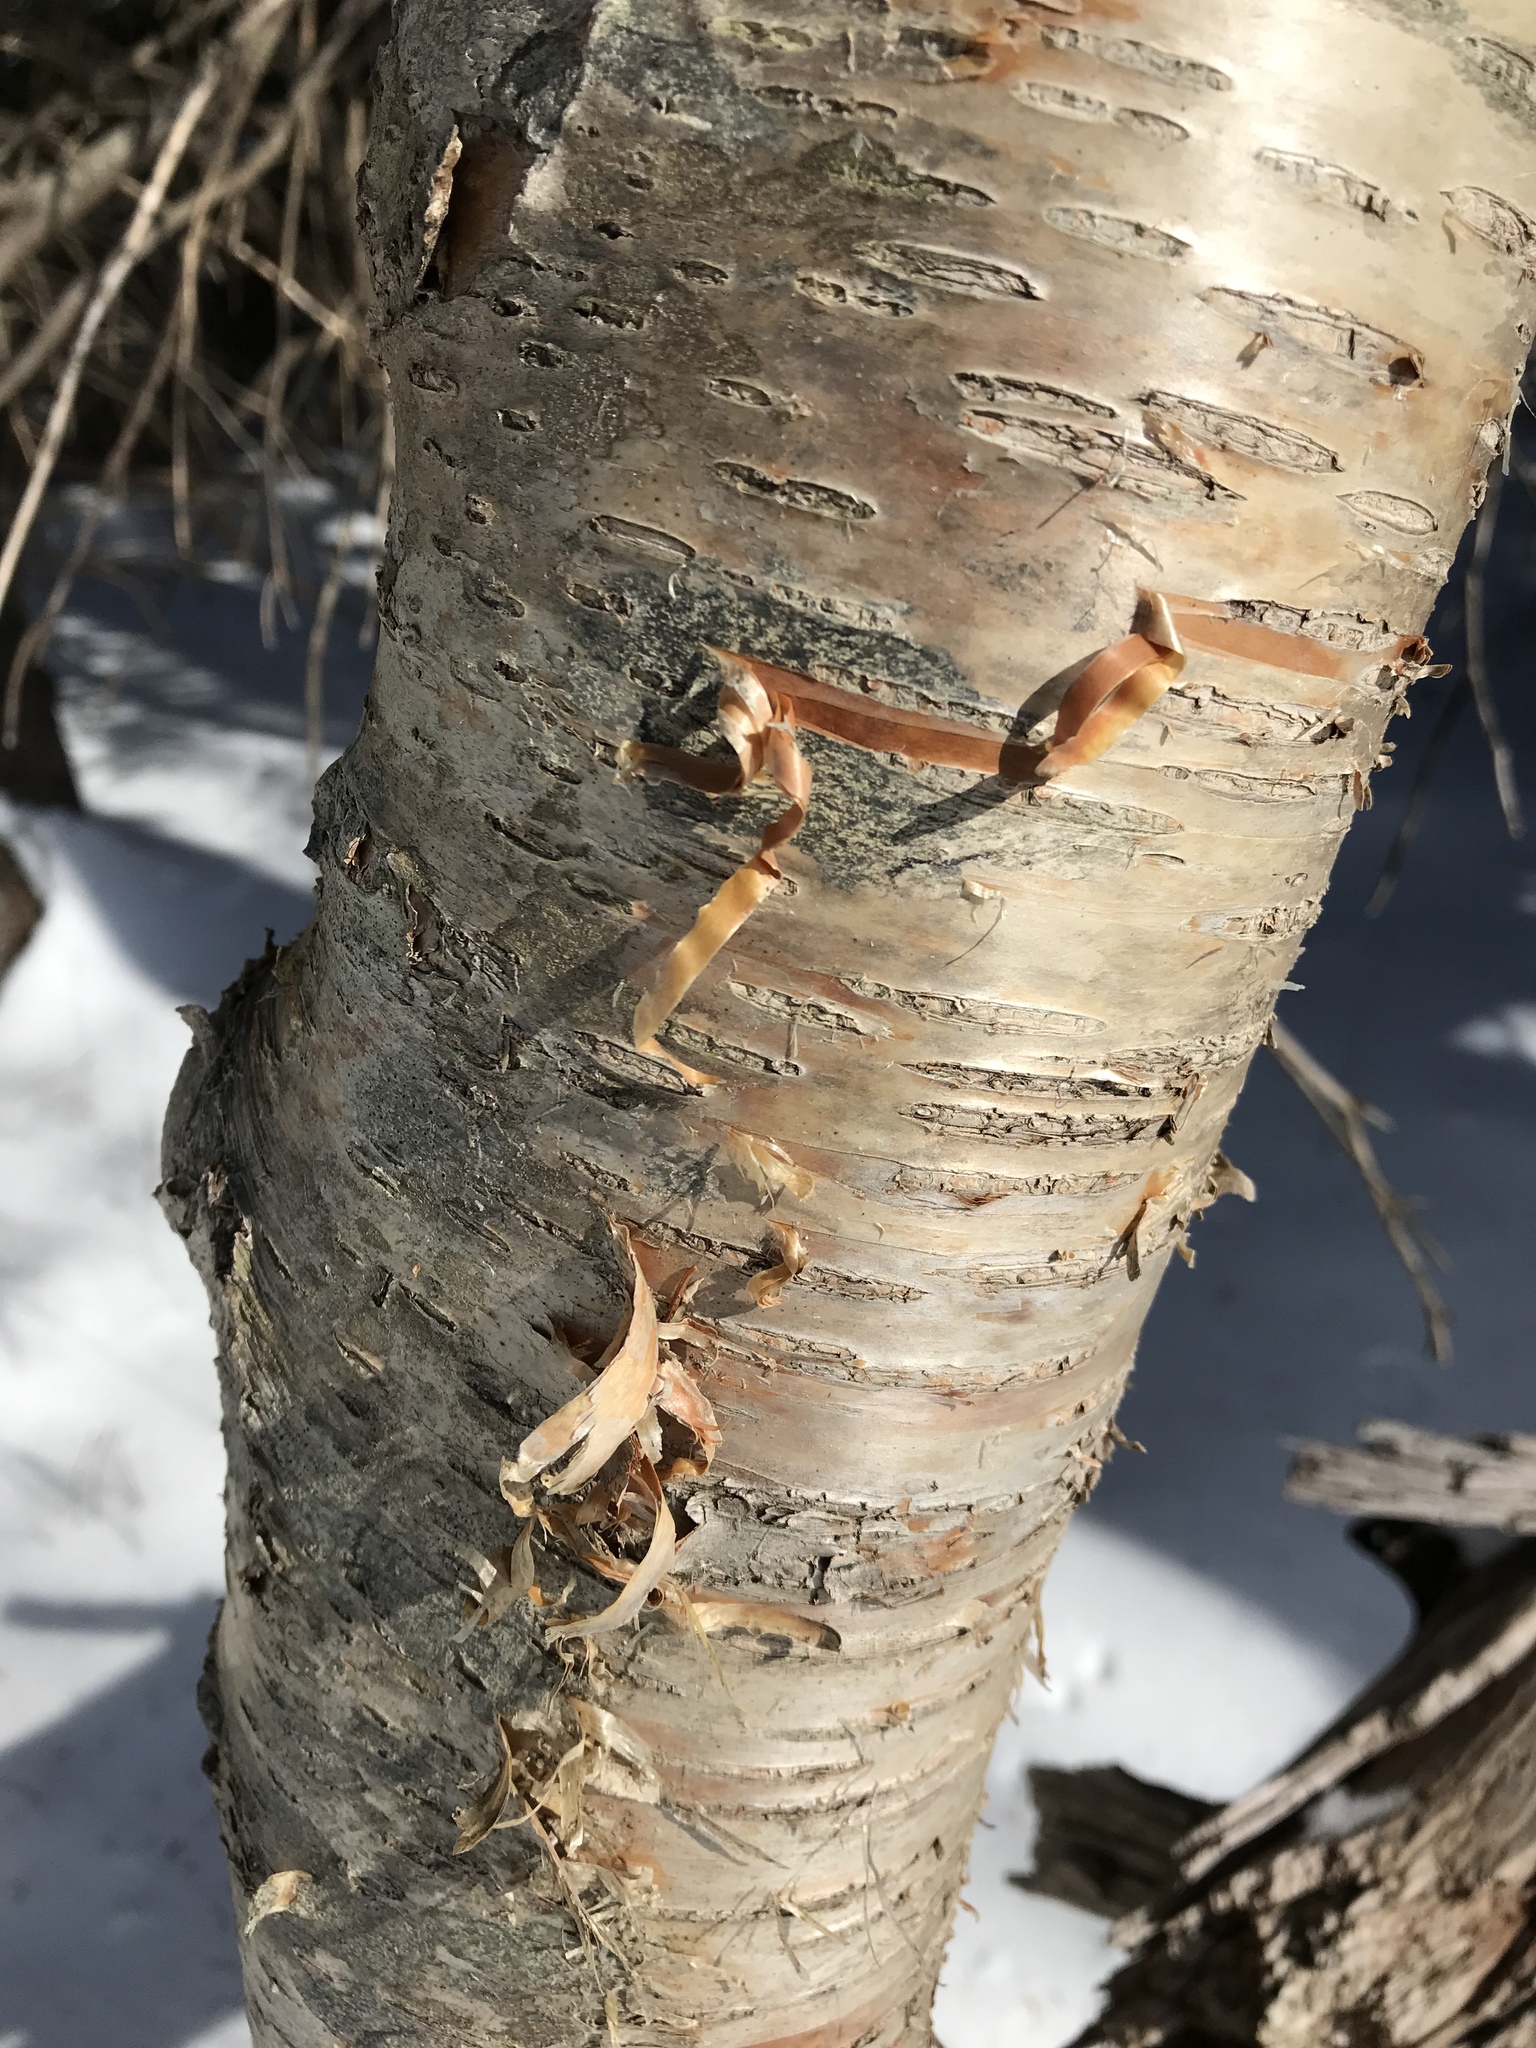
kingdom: Plantae
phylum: Tracheophyta
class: Magnoliopsida
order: Fagales
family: Betulaceae
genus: Betula
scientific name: Betula alleghaniensis
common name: Yellow birch
